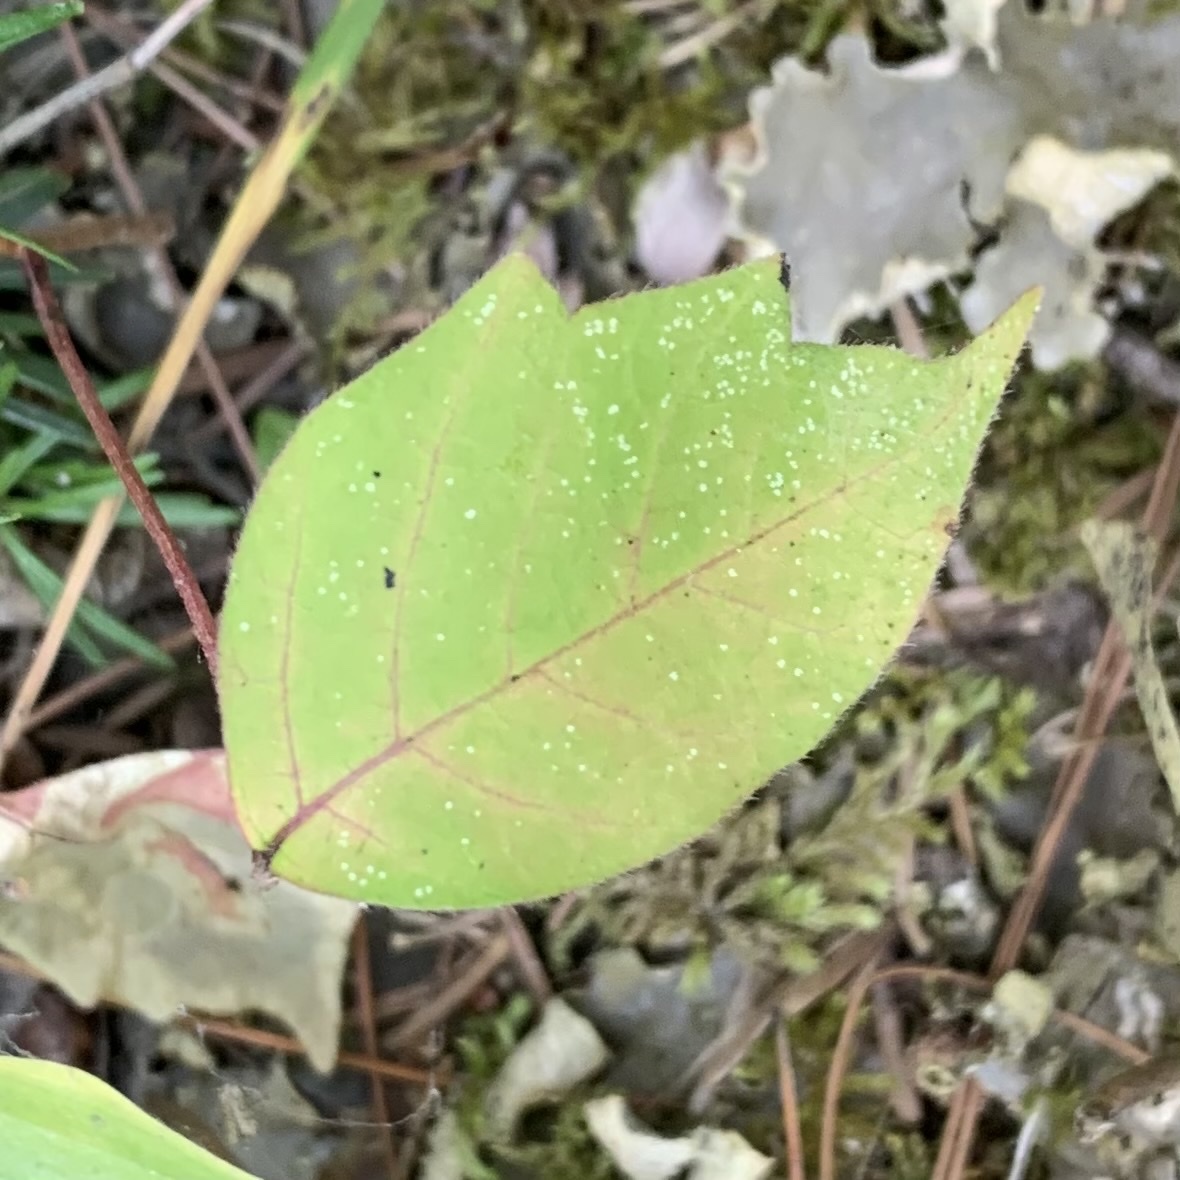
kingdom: Animalia
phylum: Arthropoda
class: Insecta
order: Lepidoptera
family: Gracillariidae
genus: Cameraria
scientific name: Cameraria guttifinitella
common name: Poison ivy leaf-miner moth
